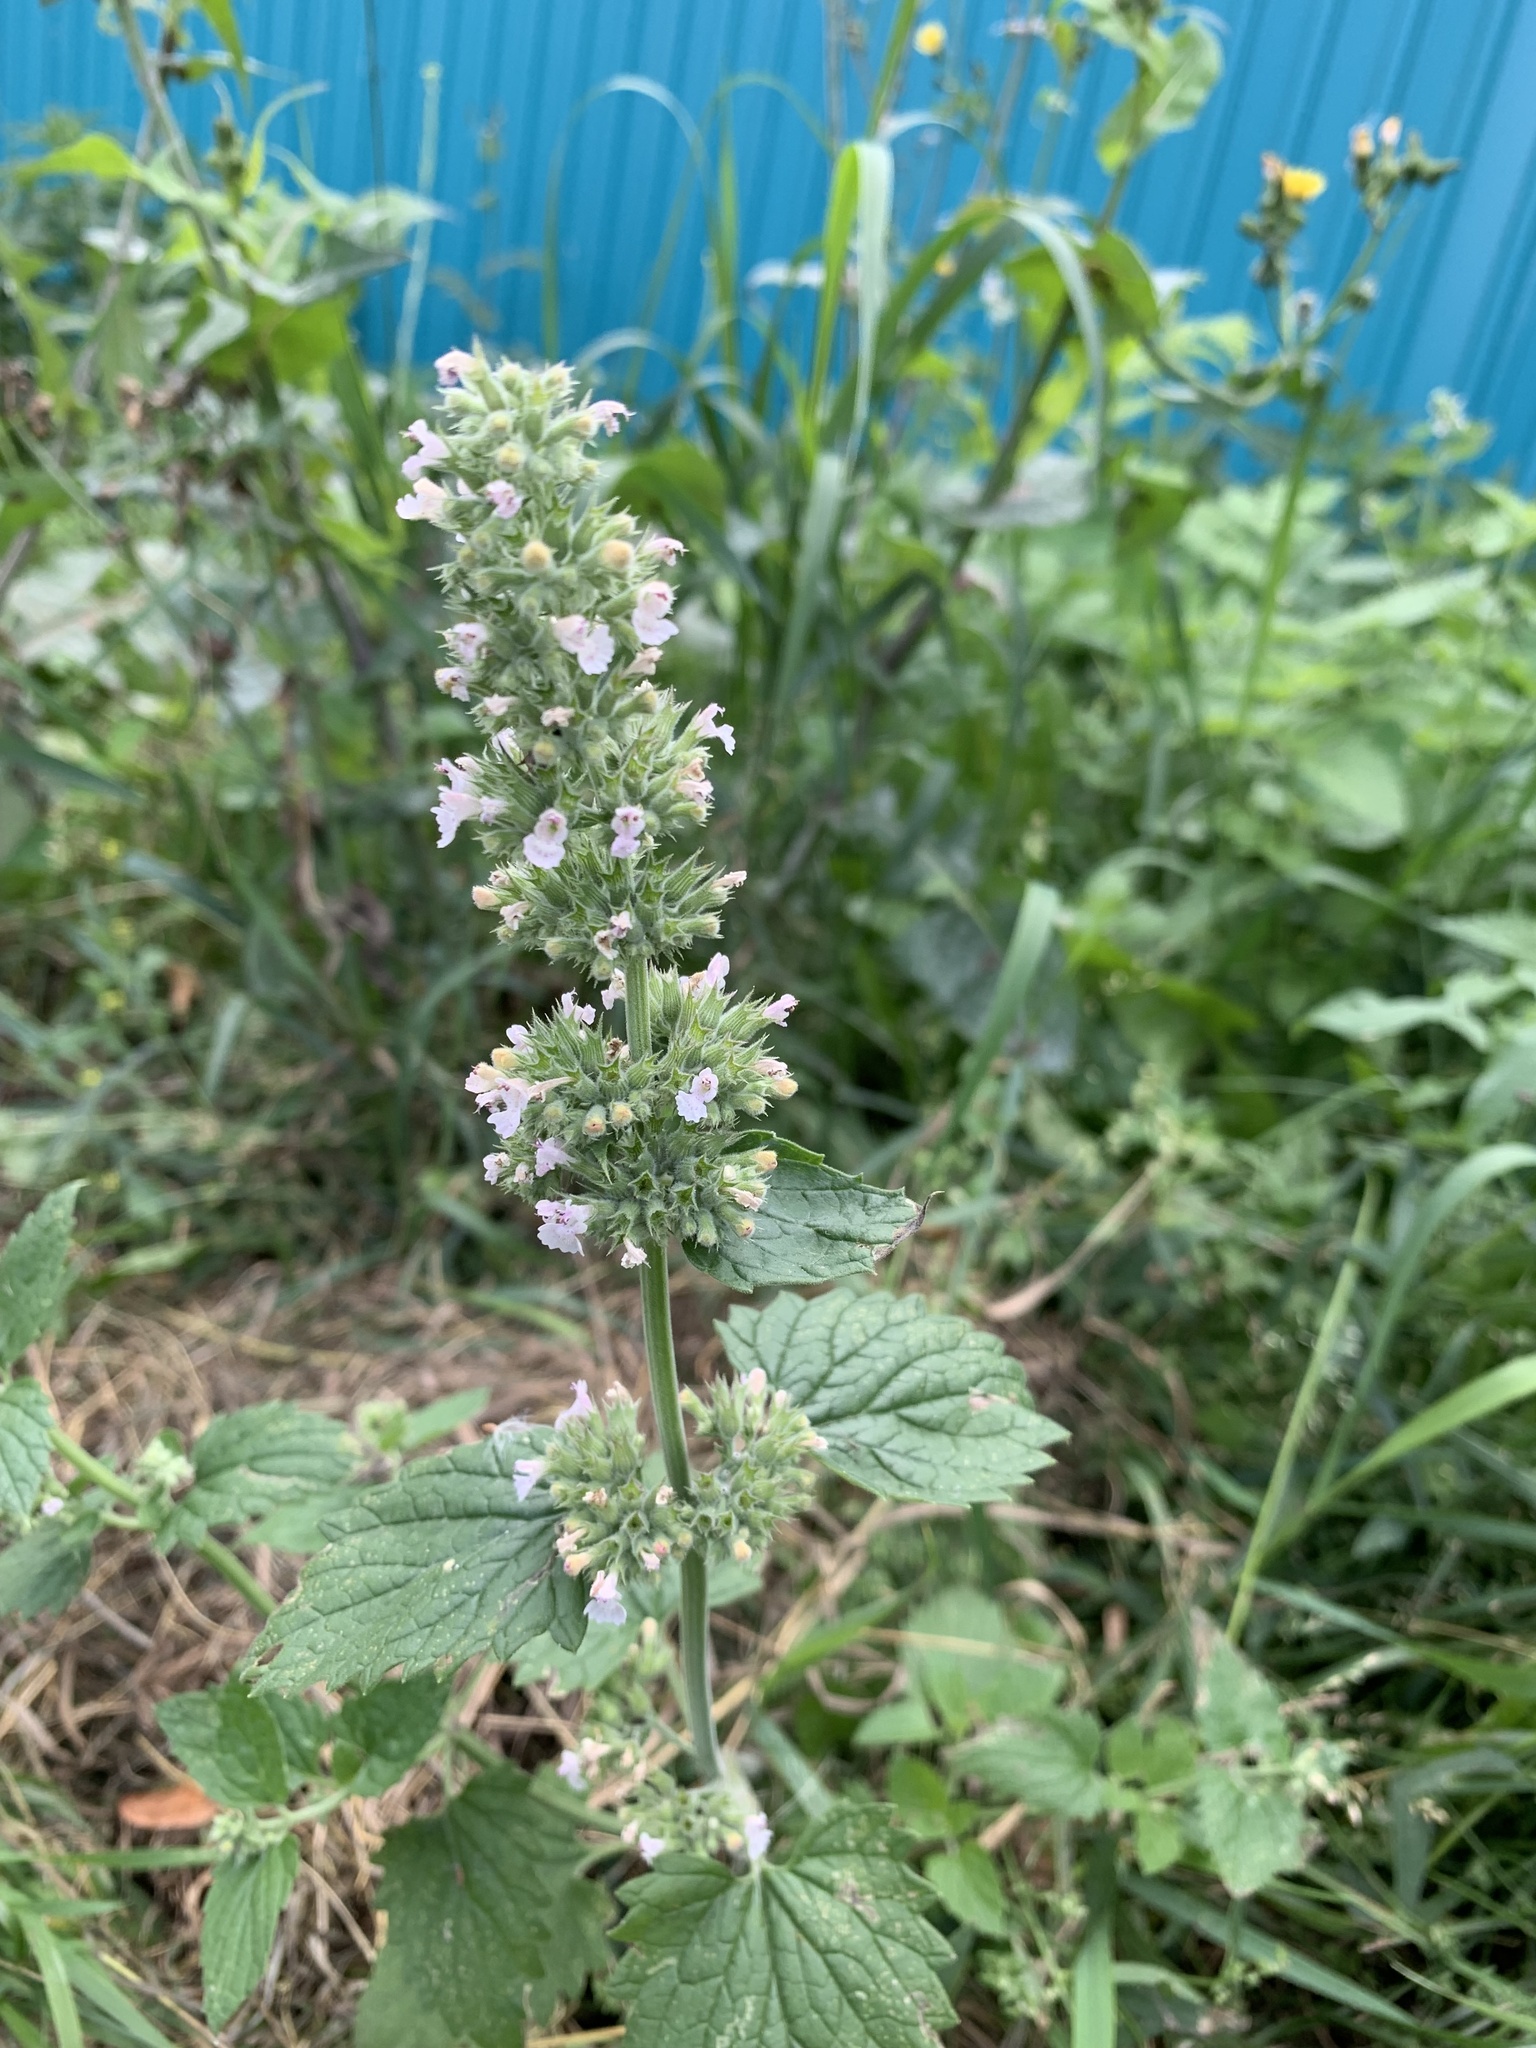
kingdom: Plantae
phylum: Tracheophyta
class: Magnoliopsida
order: Lamiales
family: Lamiaceae
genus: Nepeta
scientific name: Nepeta cataria
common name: Catnip
